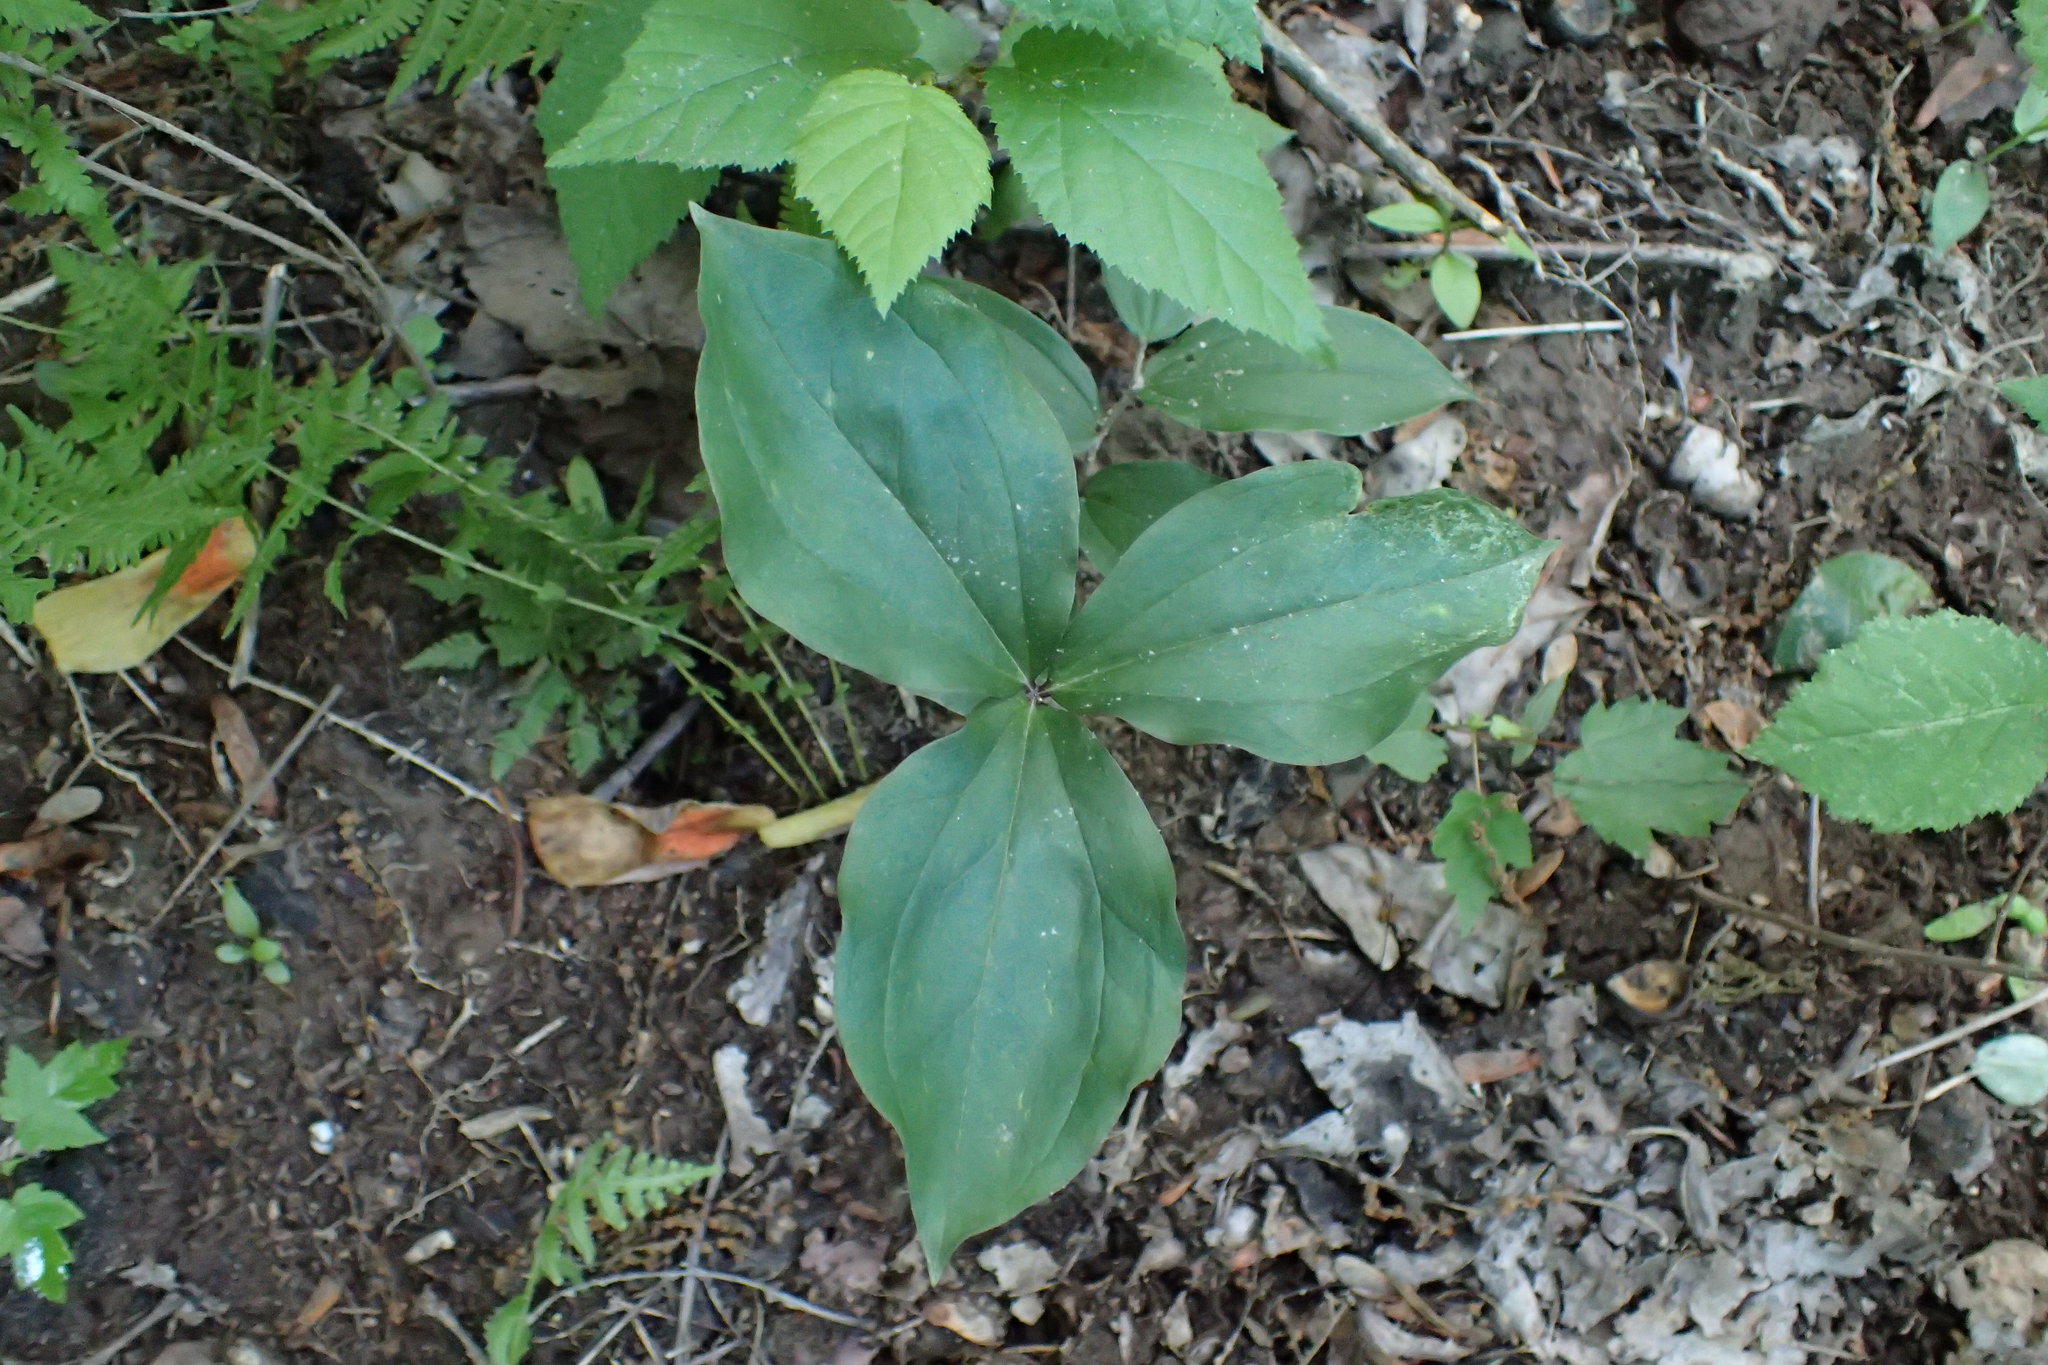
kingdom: Plantae
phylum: Tracheophyta
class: Liliopsida
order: Liliales
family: Melanthiaceae
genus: Trillium
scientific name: Trillium catesbaei
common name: Bashful trillium
